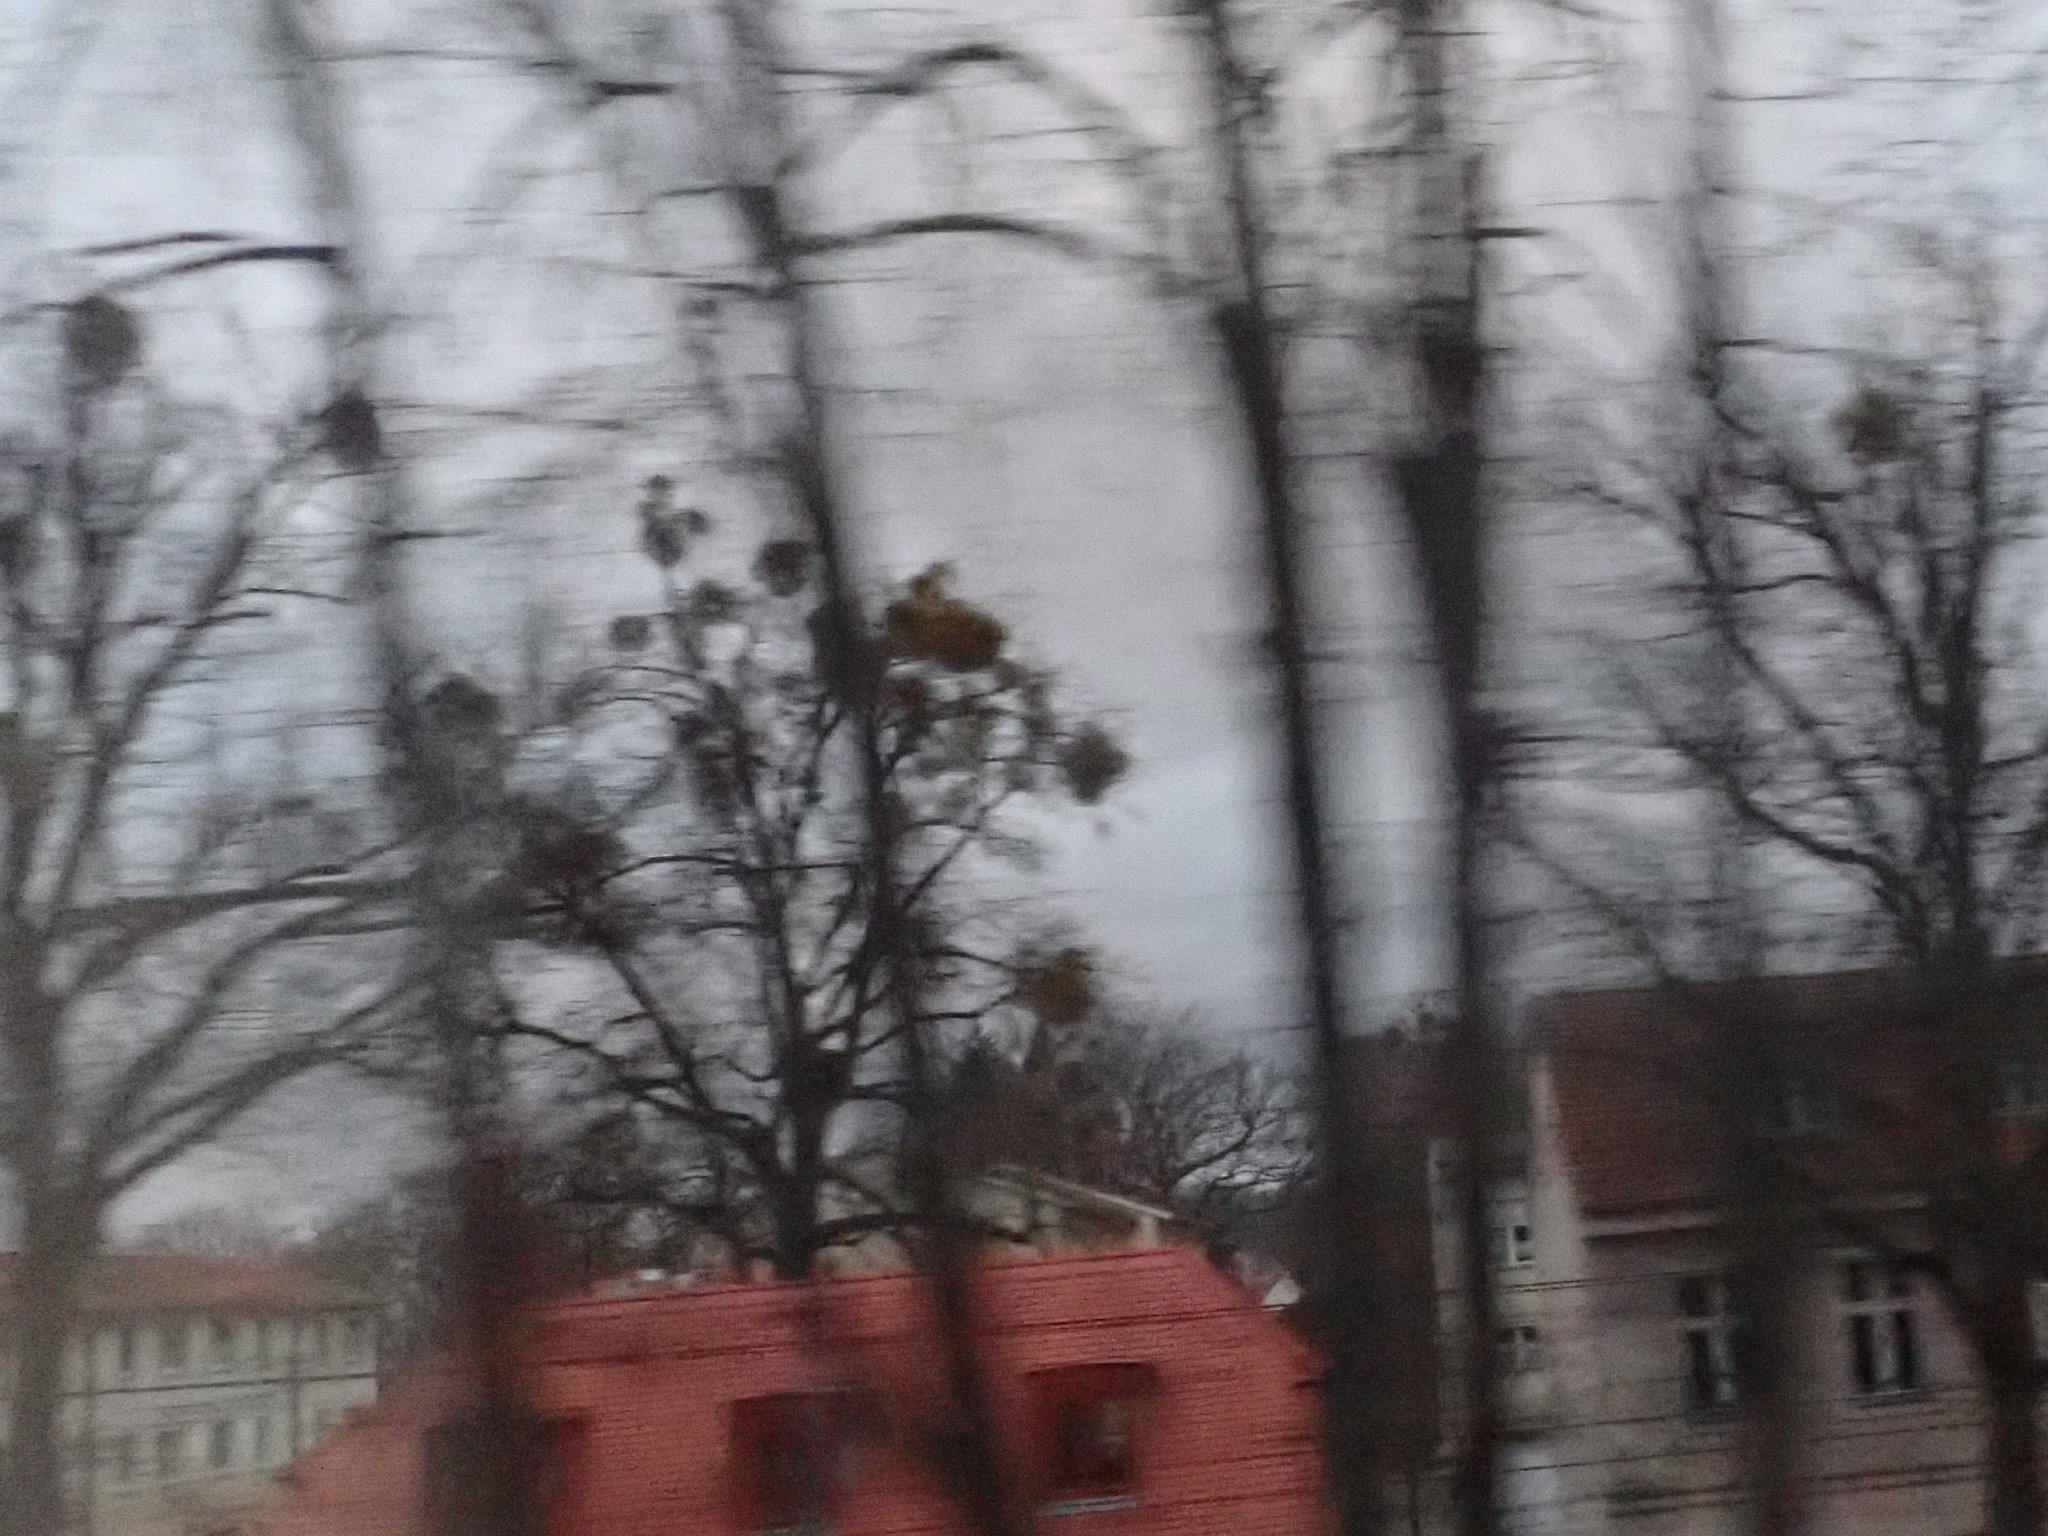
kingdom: Plantae
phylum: Tracheophyta
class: Magnoliopsida
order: Santalales
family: Viscaceae
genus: Viscum
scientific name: Viscum album
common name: Mistletoe
